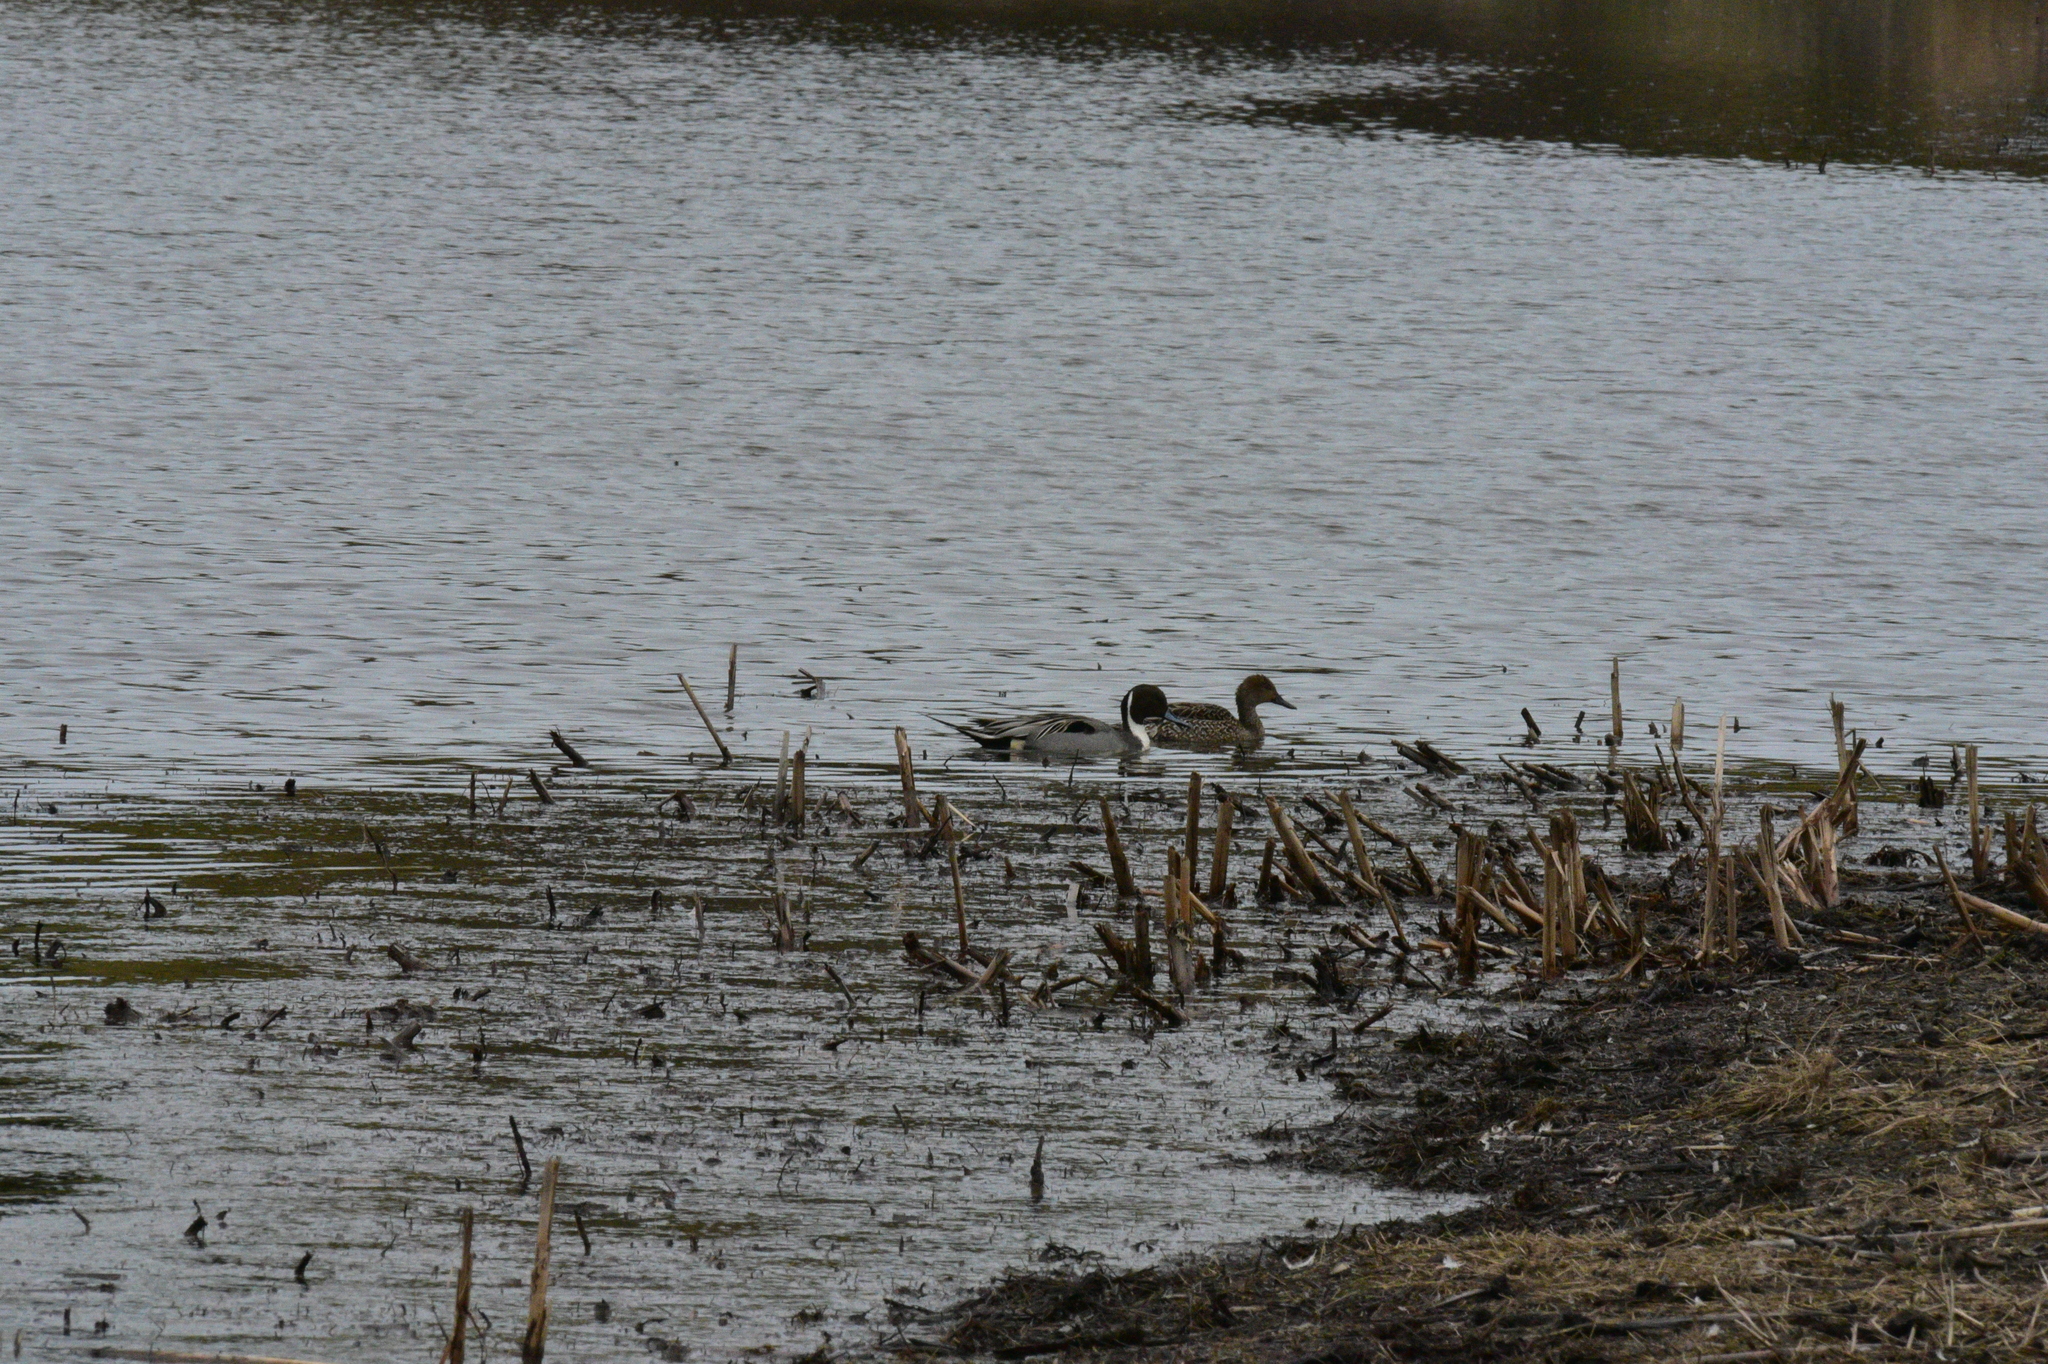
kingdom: Animalia
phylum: Chordata
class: Aves
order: Anseriformes
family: Anatidae
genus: Anas
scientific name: Anas acuta
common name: Northern pintail
